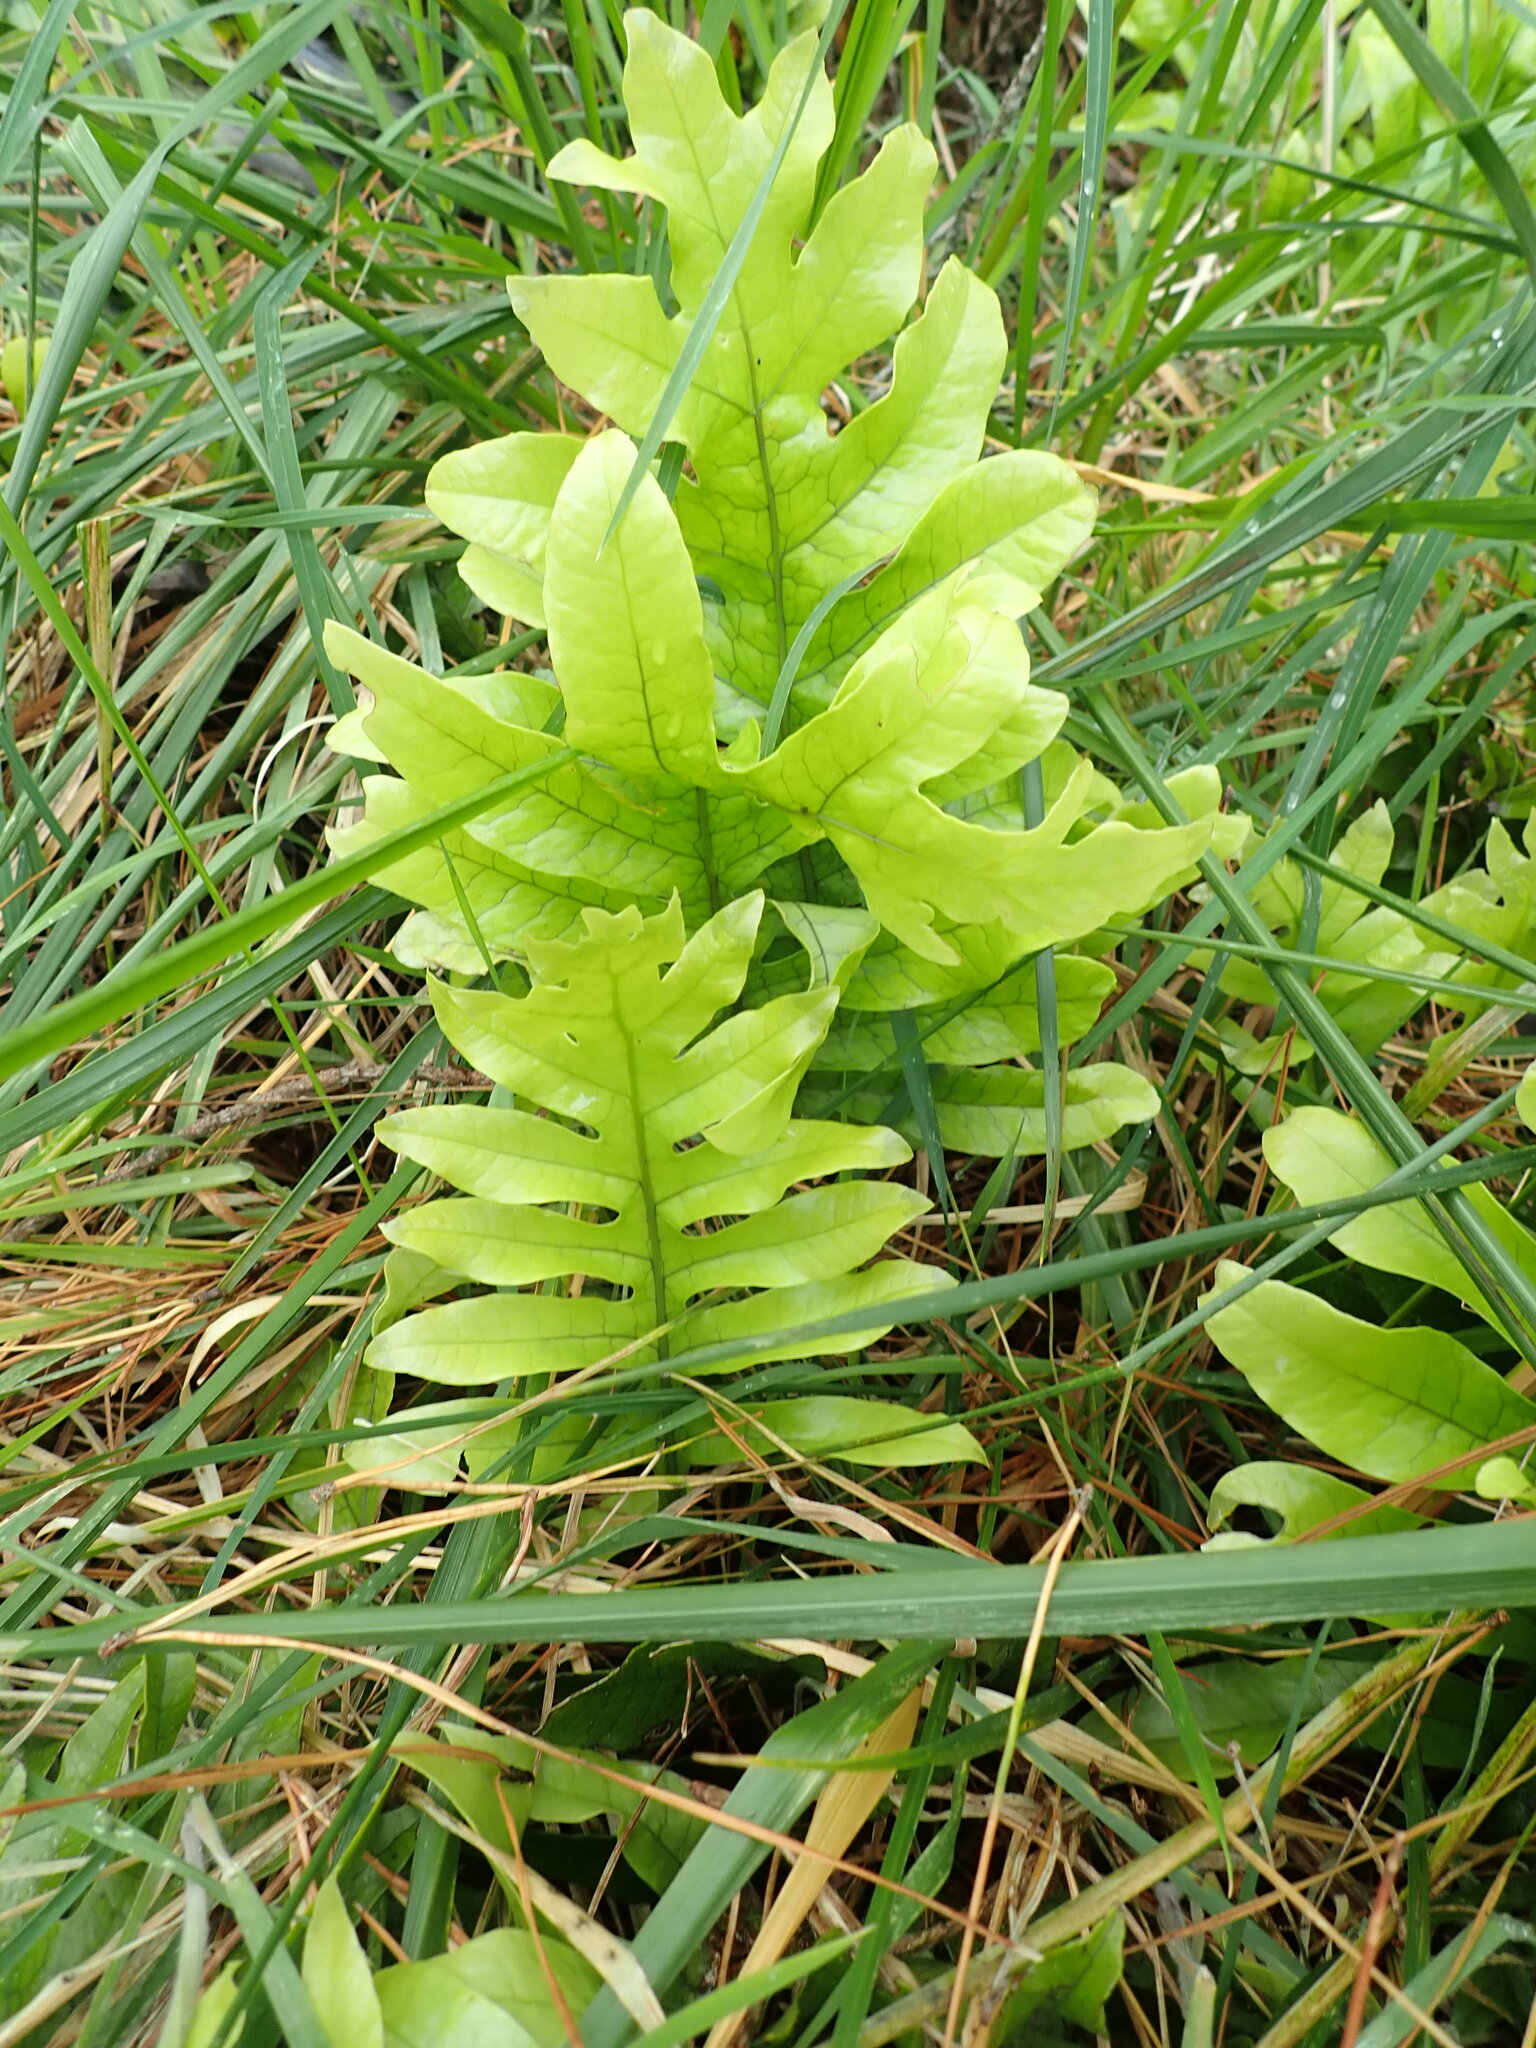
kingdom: Plantae
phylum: Tracheophyta
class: Polypodiopsida
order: Polypodiales
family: Polypodiaceae
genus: Lecanopteris
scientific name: Lecanopteris pustulata
